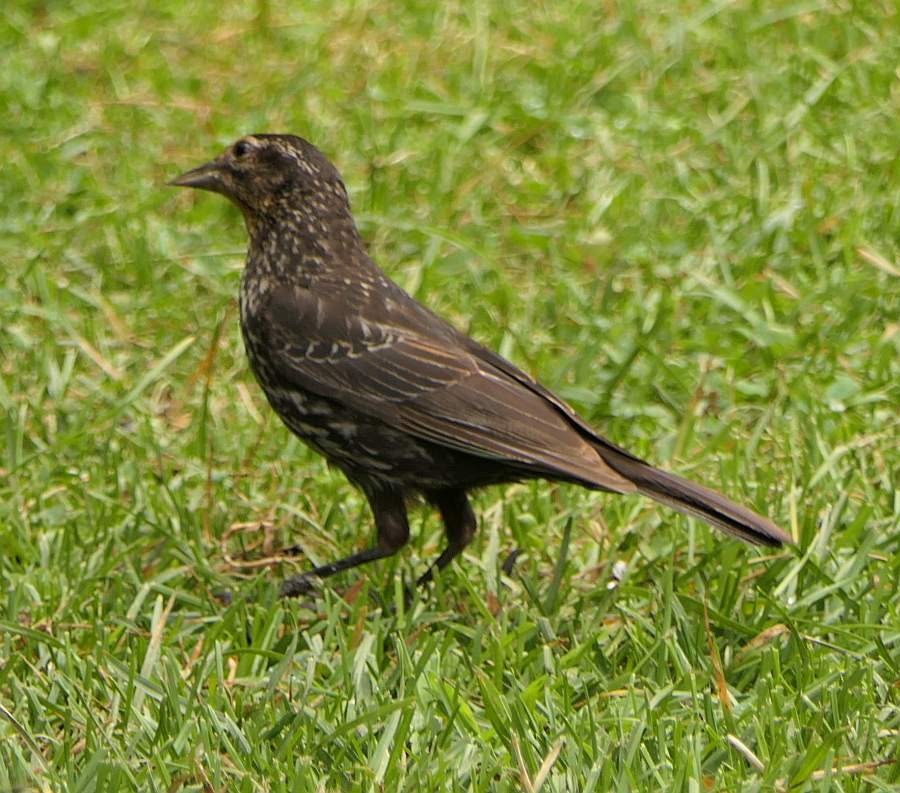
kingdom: Animalia
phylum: Chordata
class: Aves
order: Passeriformes
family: Icteridae
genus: Agelaius
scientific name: Agelaius phoeniceus
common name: Red-winged blackbird
